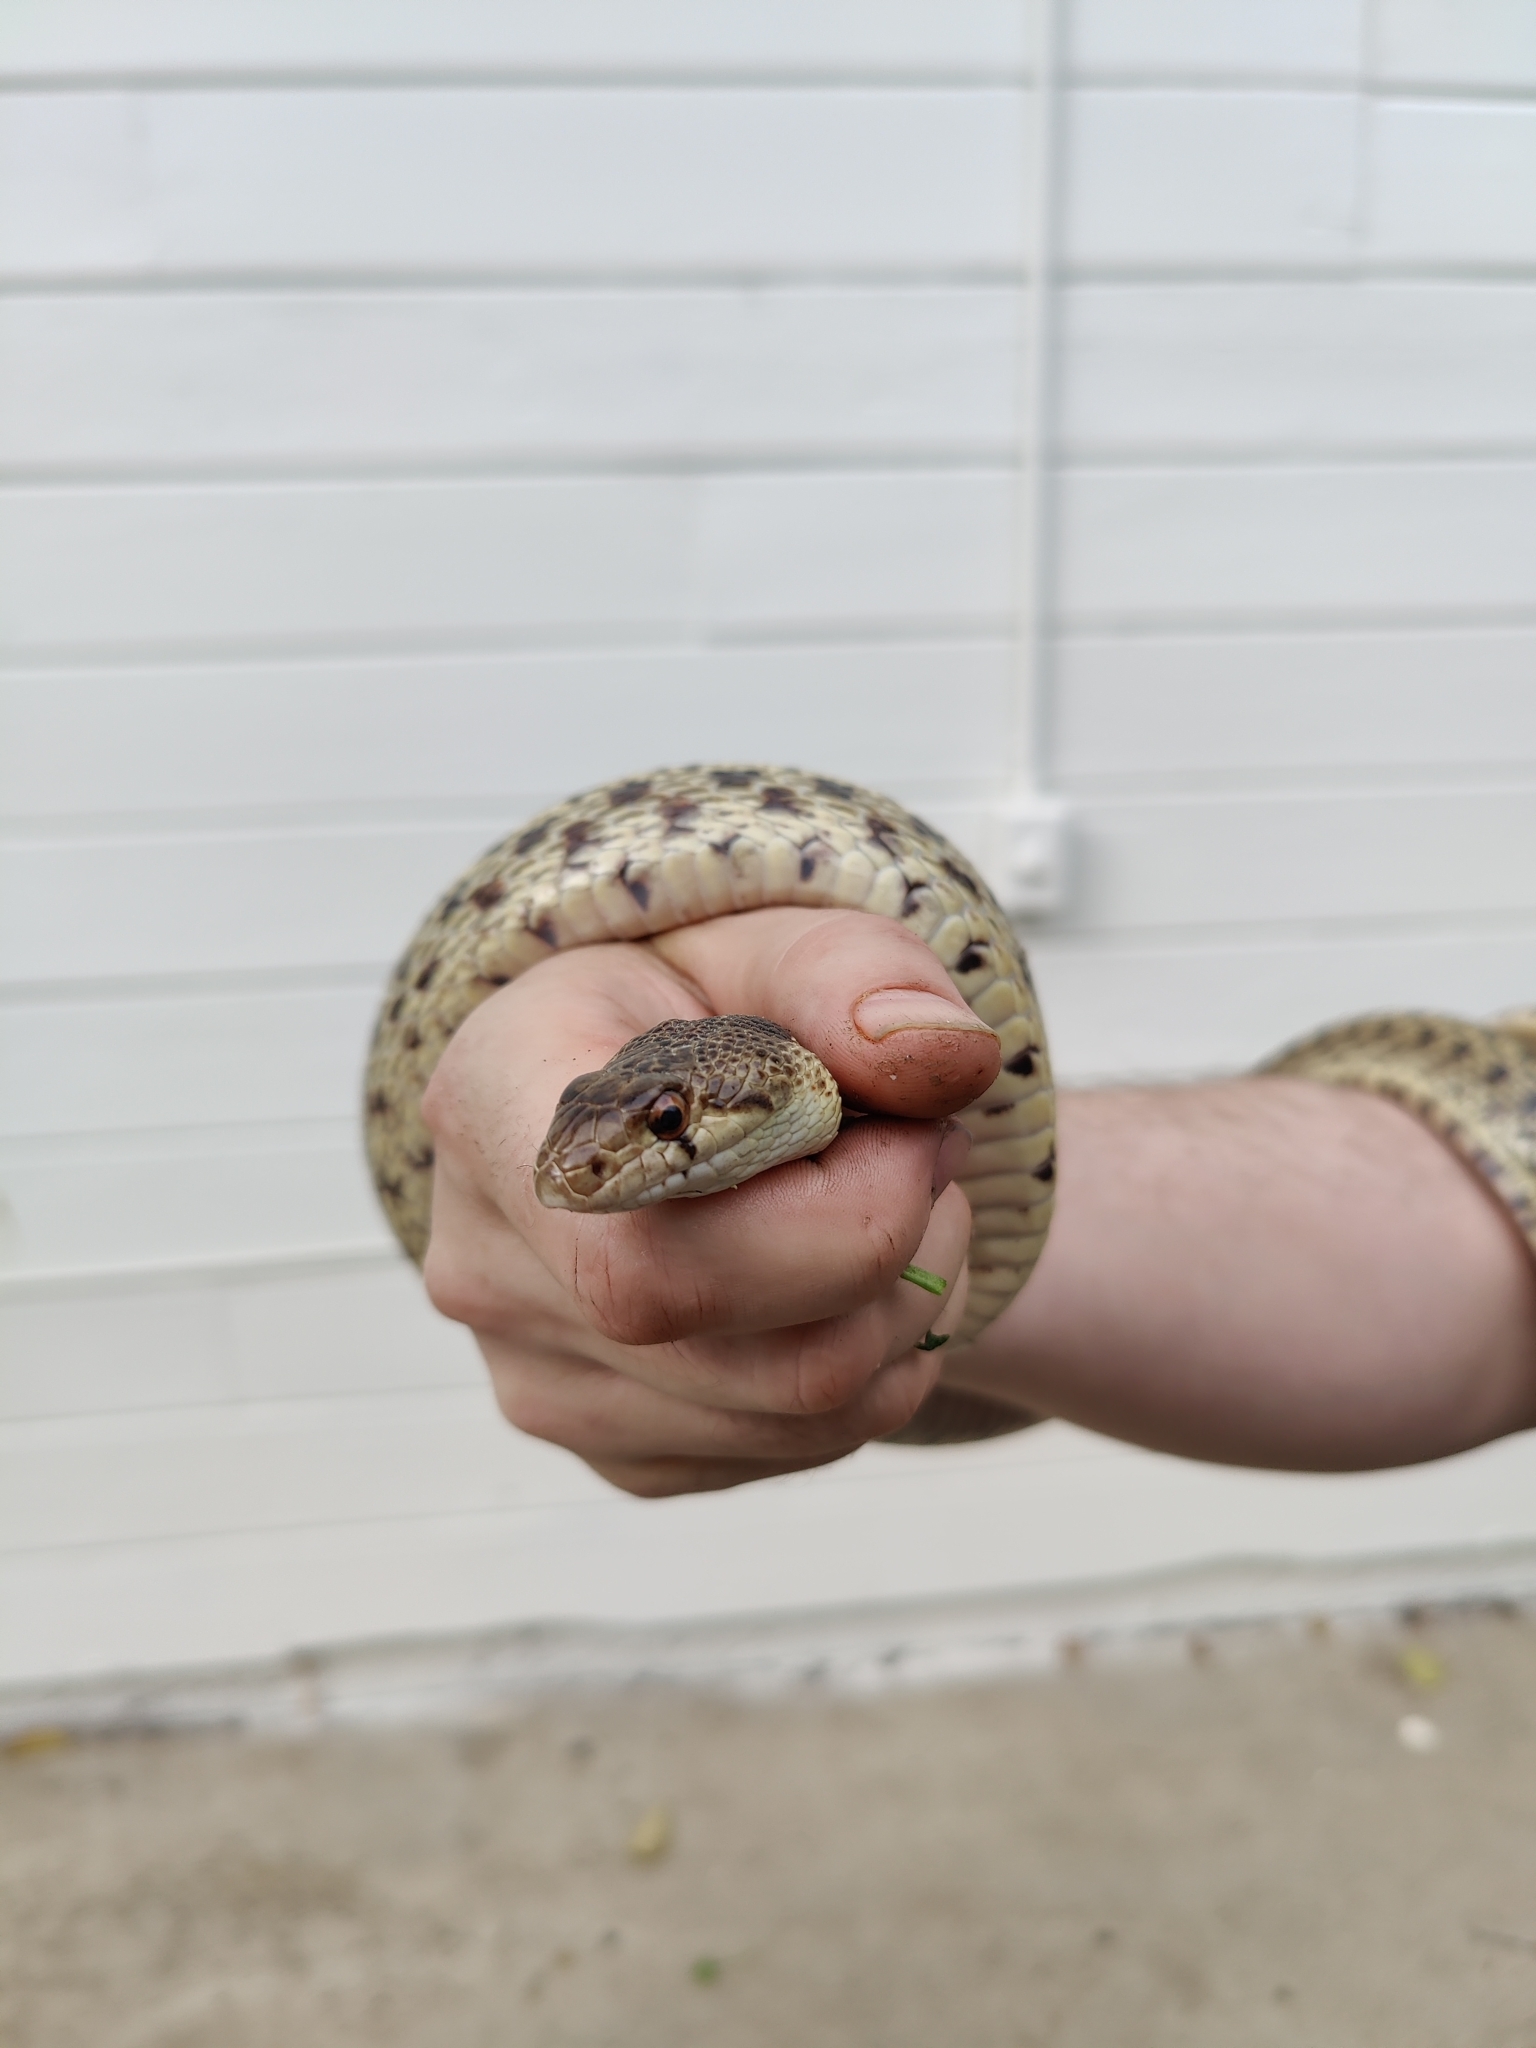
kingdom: Animalia
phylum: Chordata
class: Squamata
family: Colubridae
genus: Pituophis
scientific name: Pituophis catenifer
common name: Gopher snake
